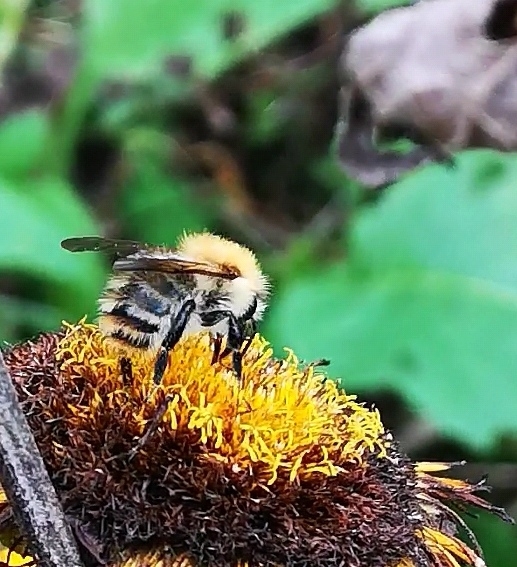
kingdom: Animalia
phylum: Arthropoda
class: Insecta
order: Hymenoptera
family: Apidae
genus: Bombus
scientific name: Bombus pascuorum
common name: Common carder bee
